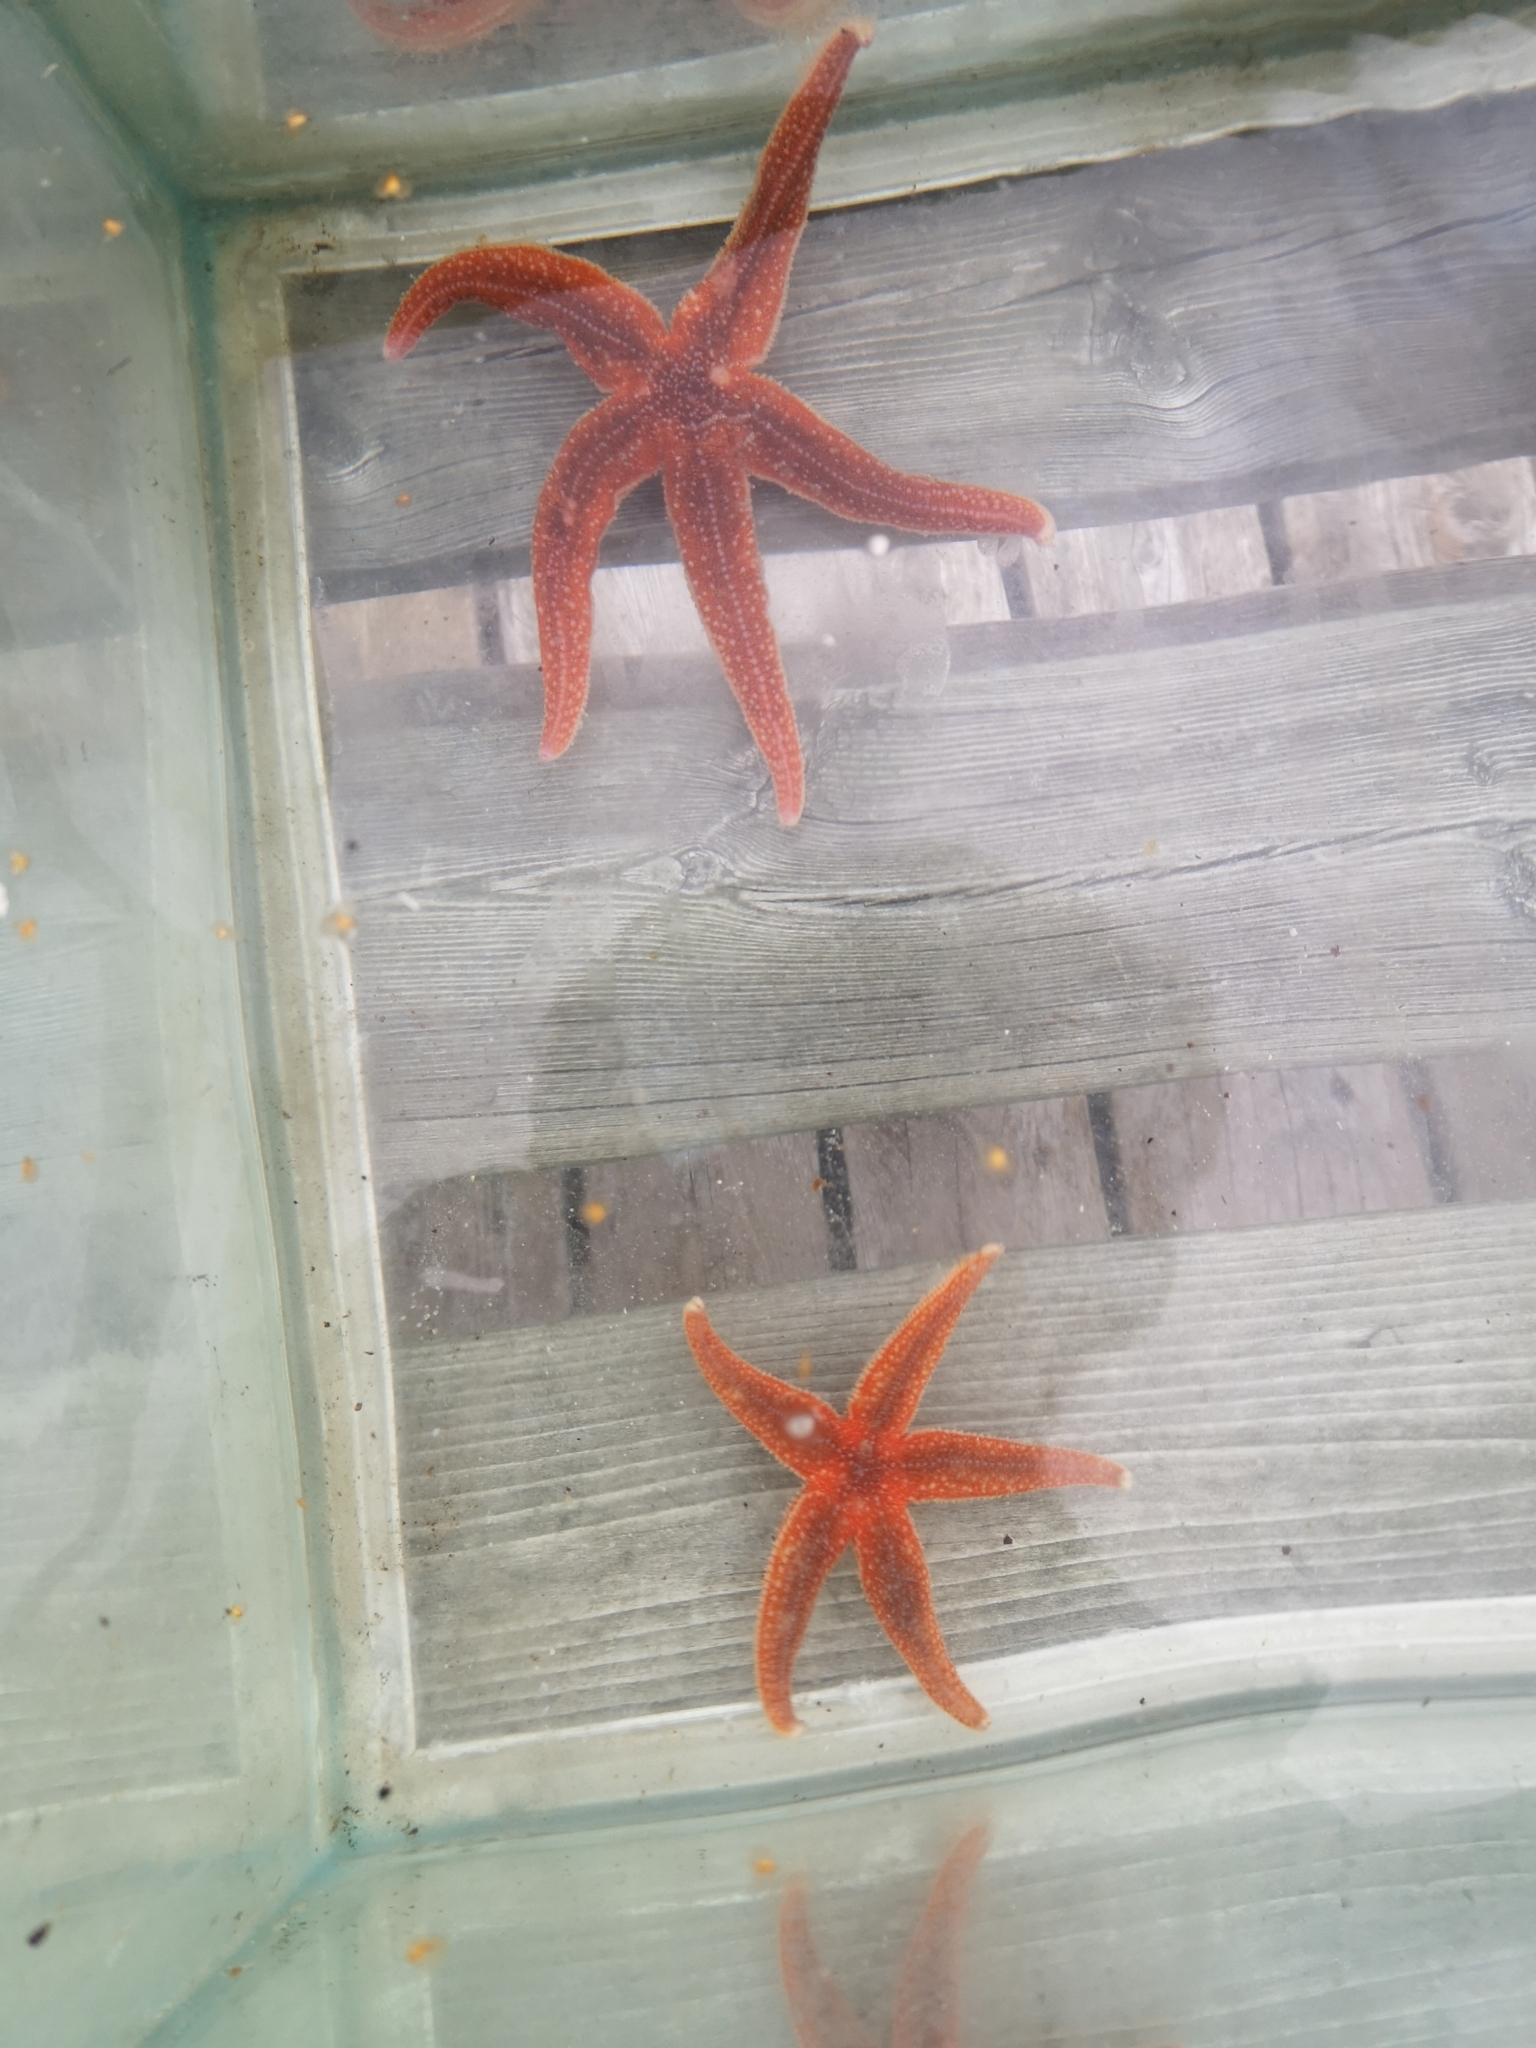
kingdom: Animalia
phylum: Echinodermata
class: Asteroidea
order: Forcipulatida
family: Asteriidae
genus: Asterias
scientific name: Asterias rubens
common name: Common starfish
